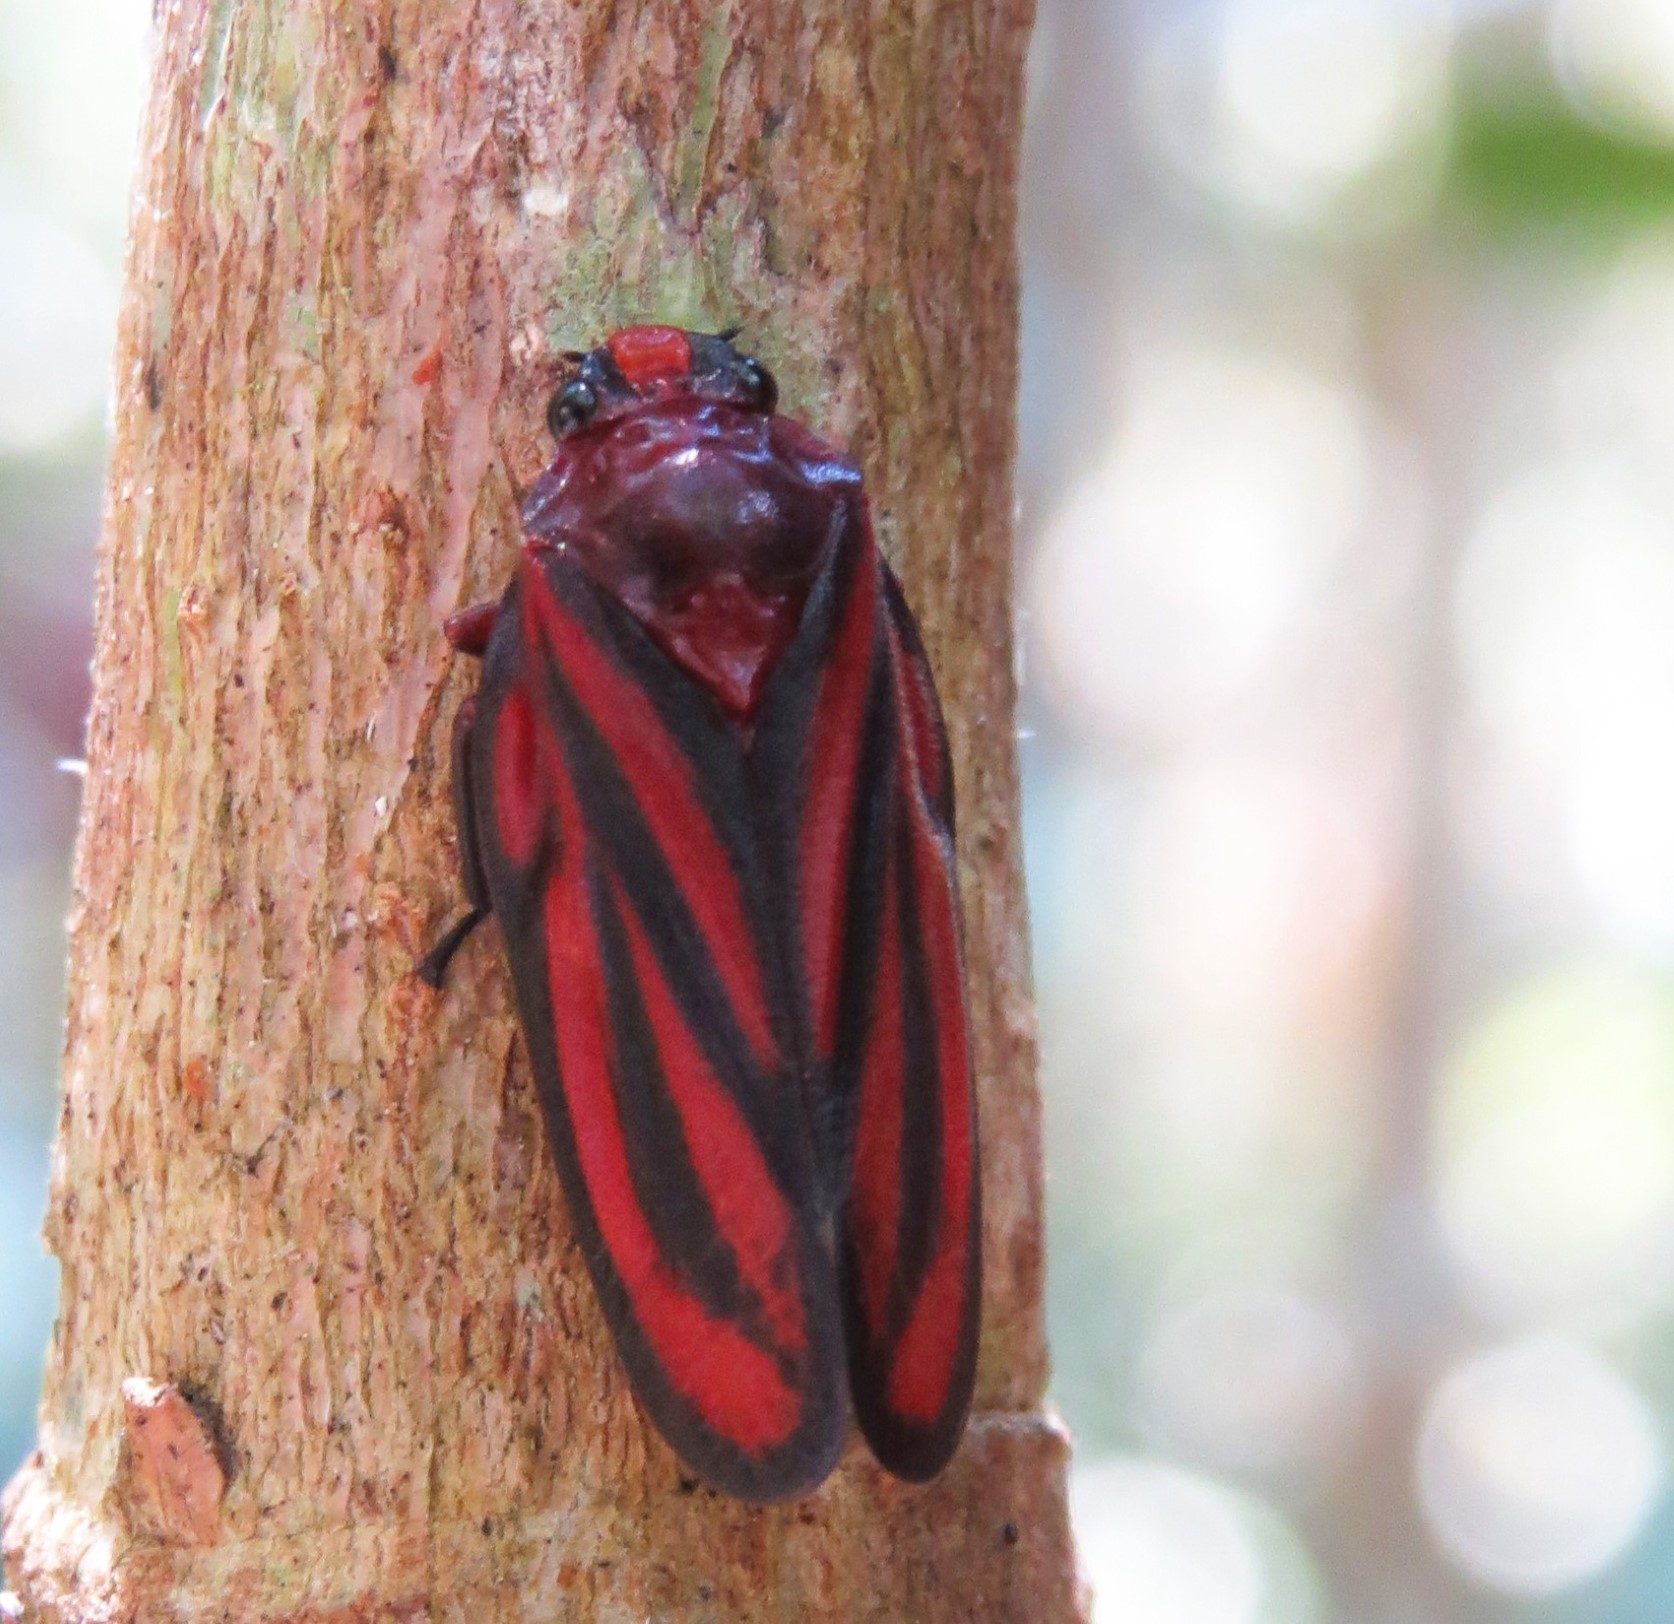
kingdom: Animalia
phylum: Arthropoda
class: Insecta
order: Hemiptera
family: Cercopidae
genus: Amberana
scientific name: Amberana uncinata
